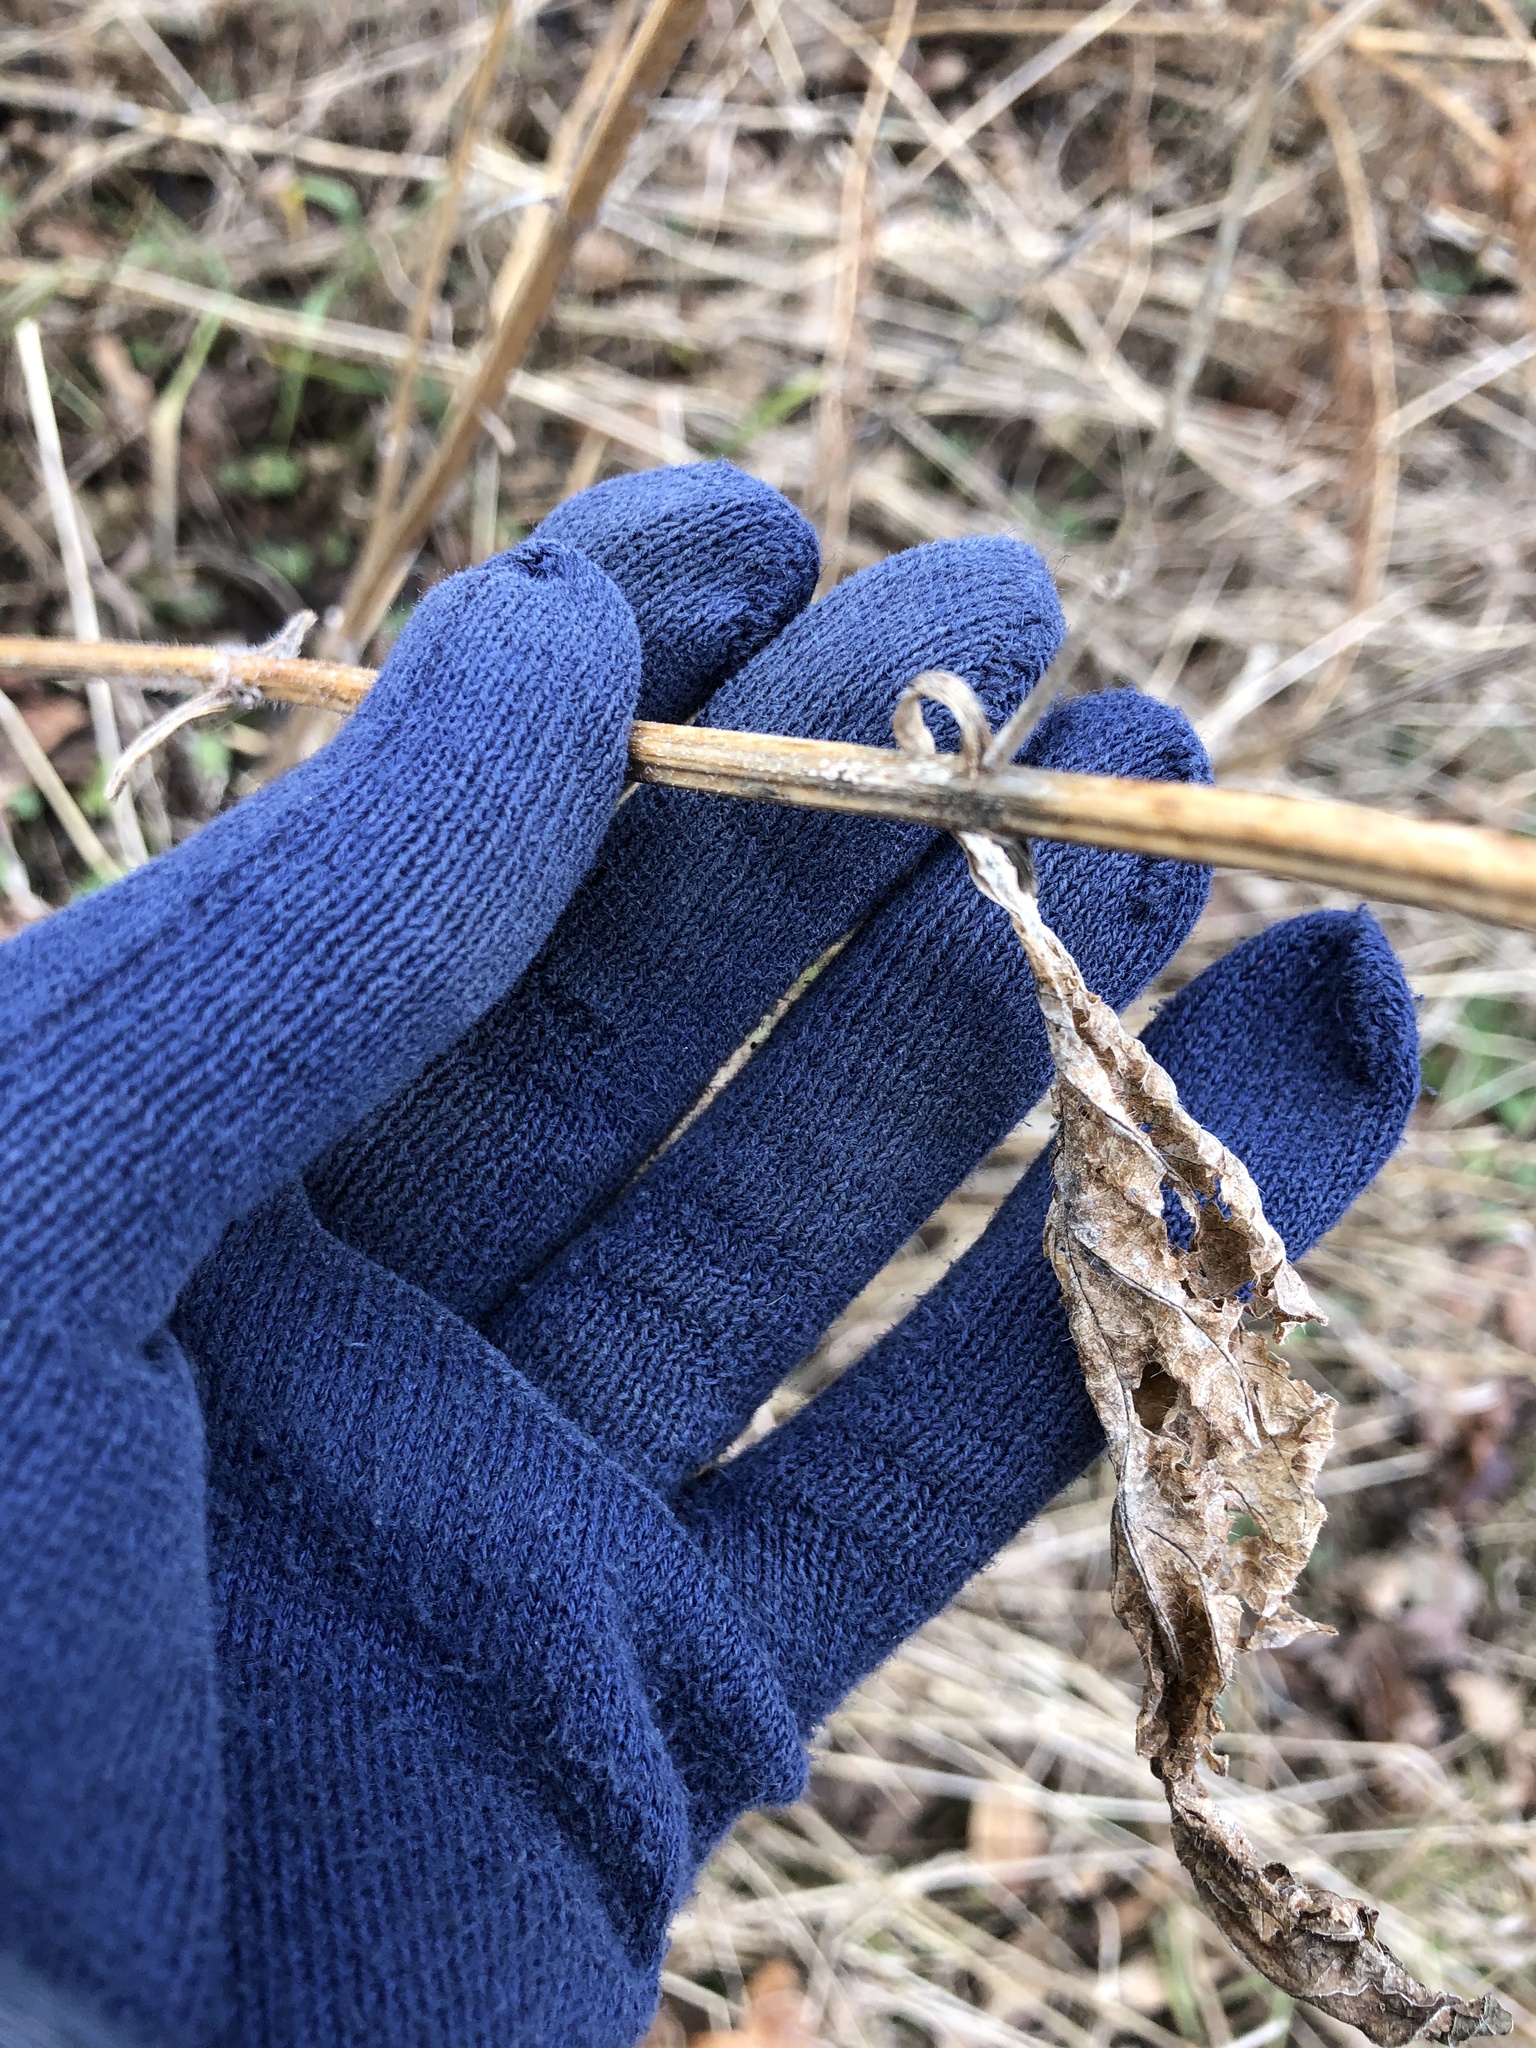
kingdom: Plantae
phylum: Tracheophyta
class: Magnoliopsida
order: Lamiales
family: Verbenaceae
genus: Verbena
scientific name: Verbena urticifolia
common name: Nettle-leaved vervain
